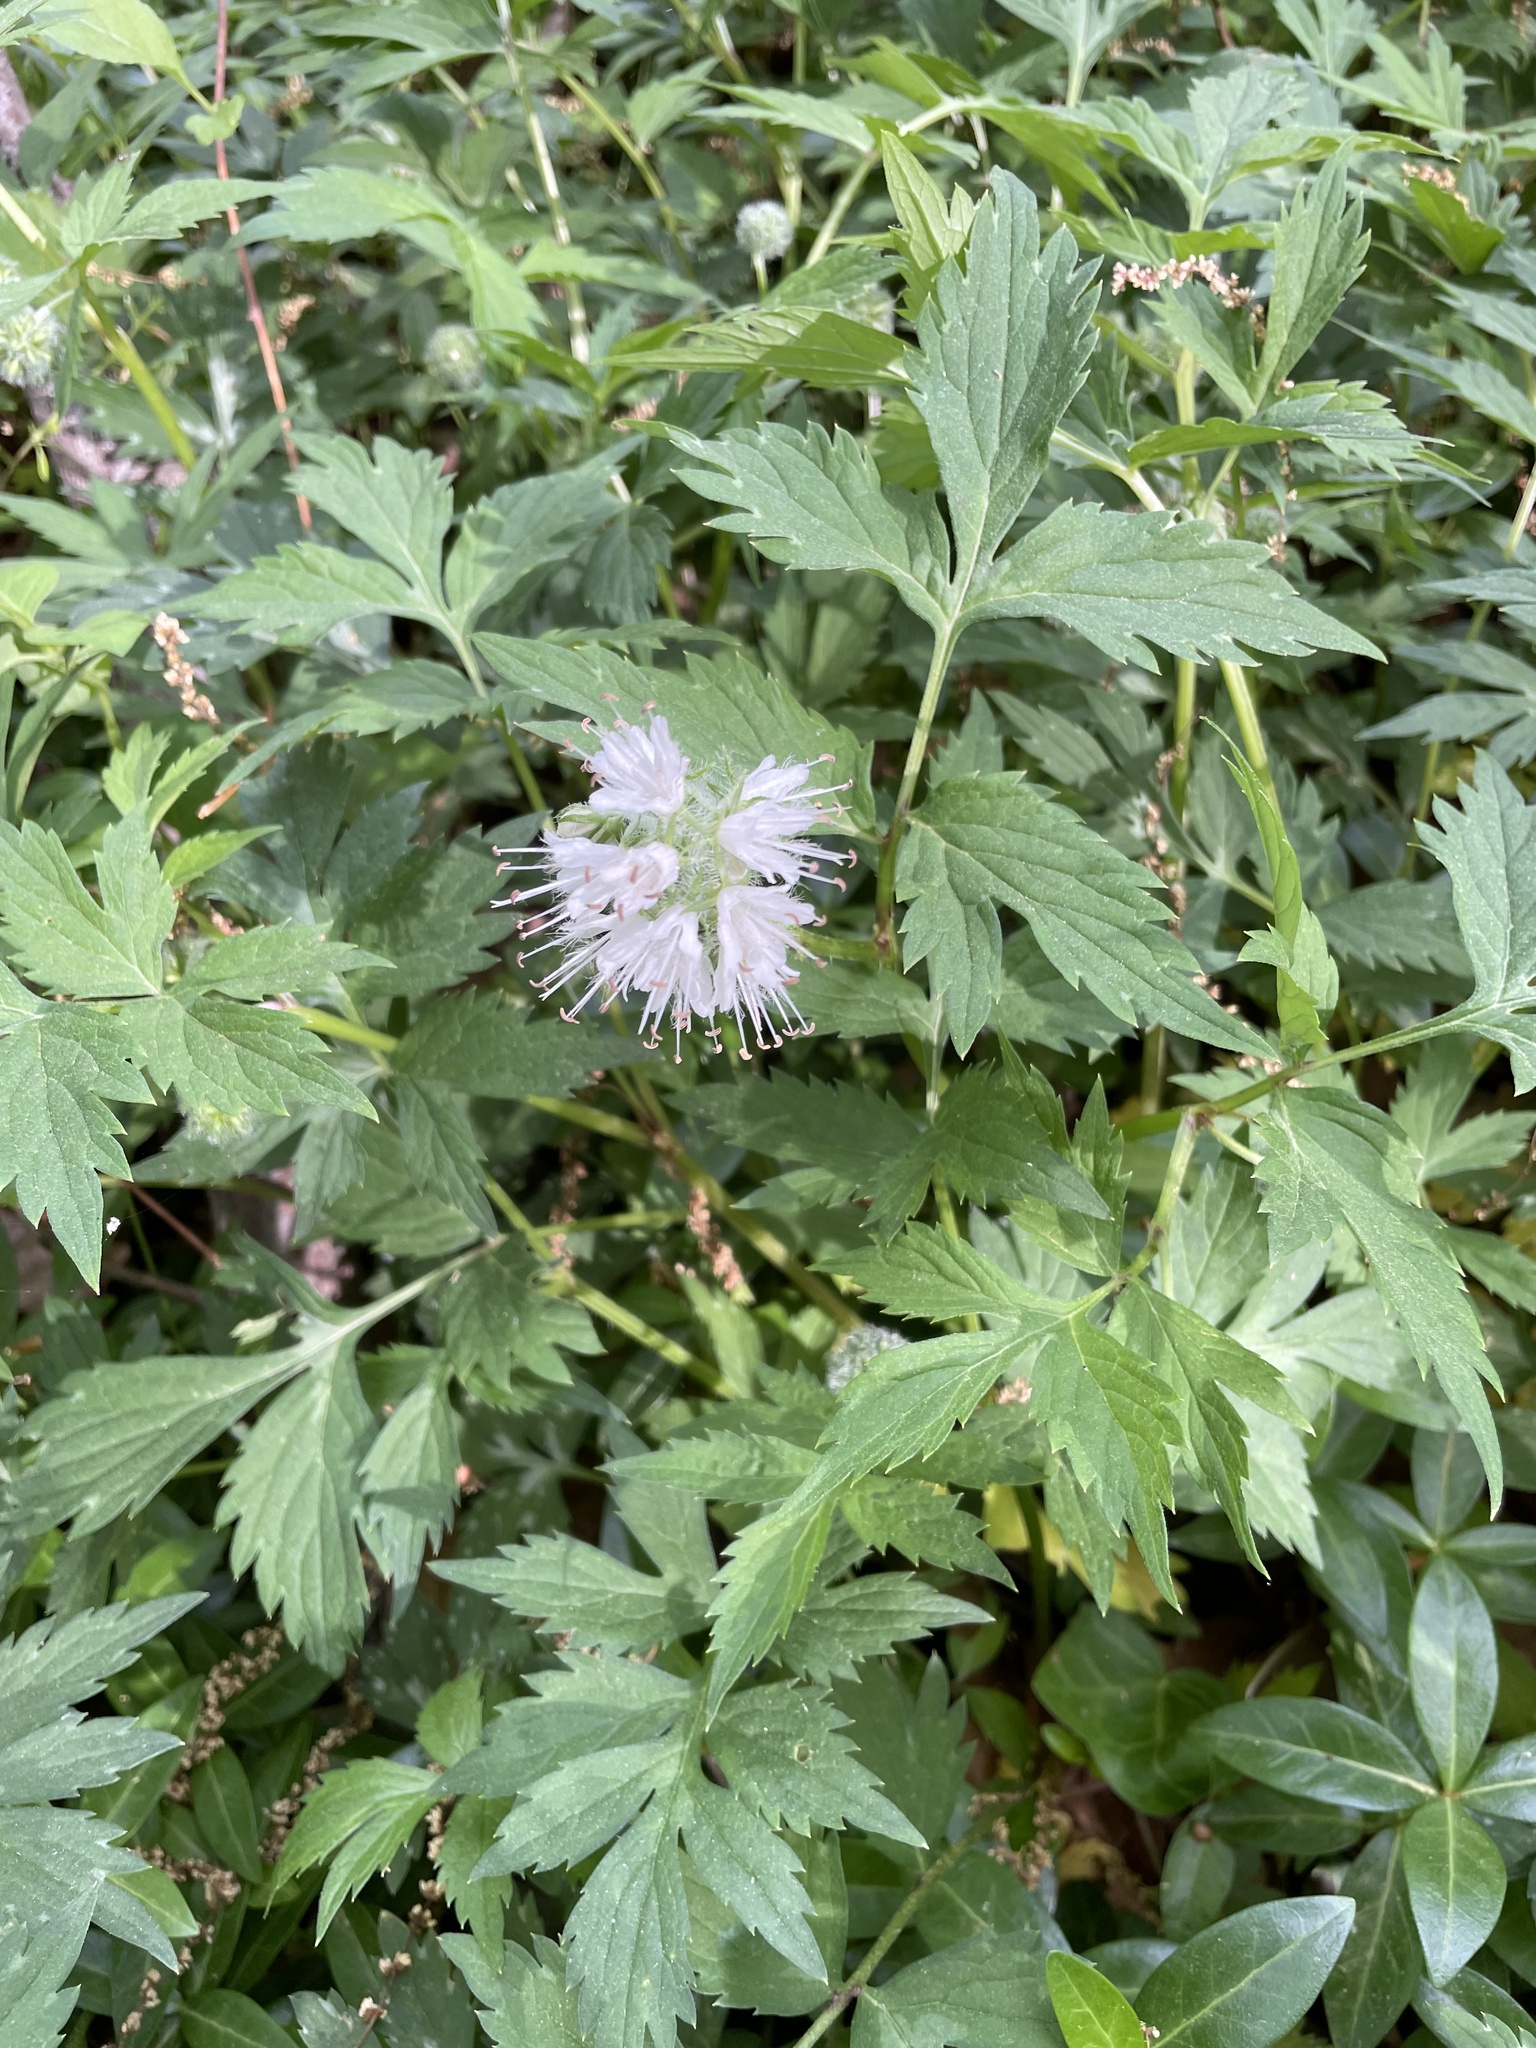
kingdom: Plantae
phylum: Tracheophyta
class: Magnoliopsida
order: Boraginales
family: Hydrophyllaceae
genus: Hydrophyllum
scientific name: Hydrophyllum virginianum
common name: Virginia waterleaf
